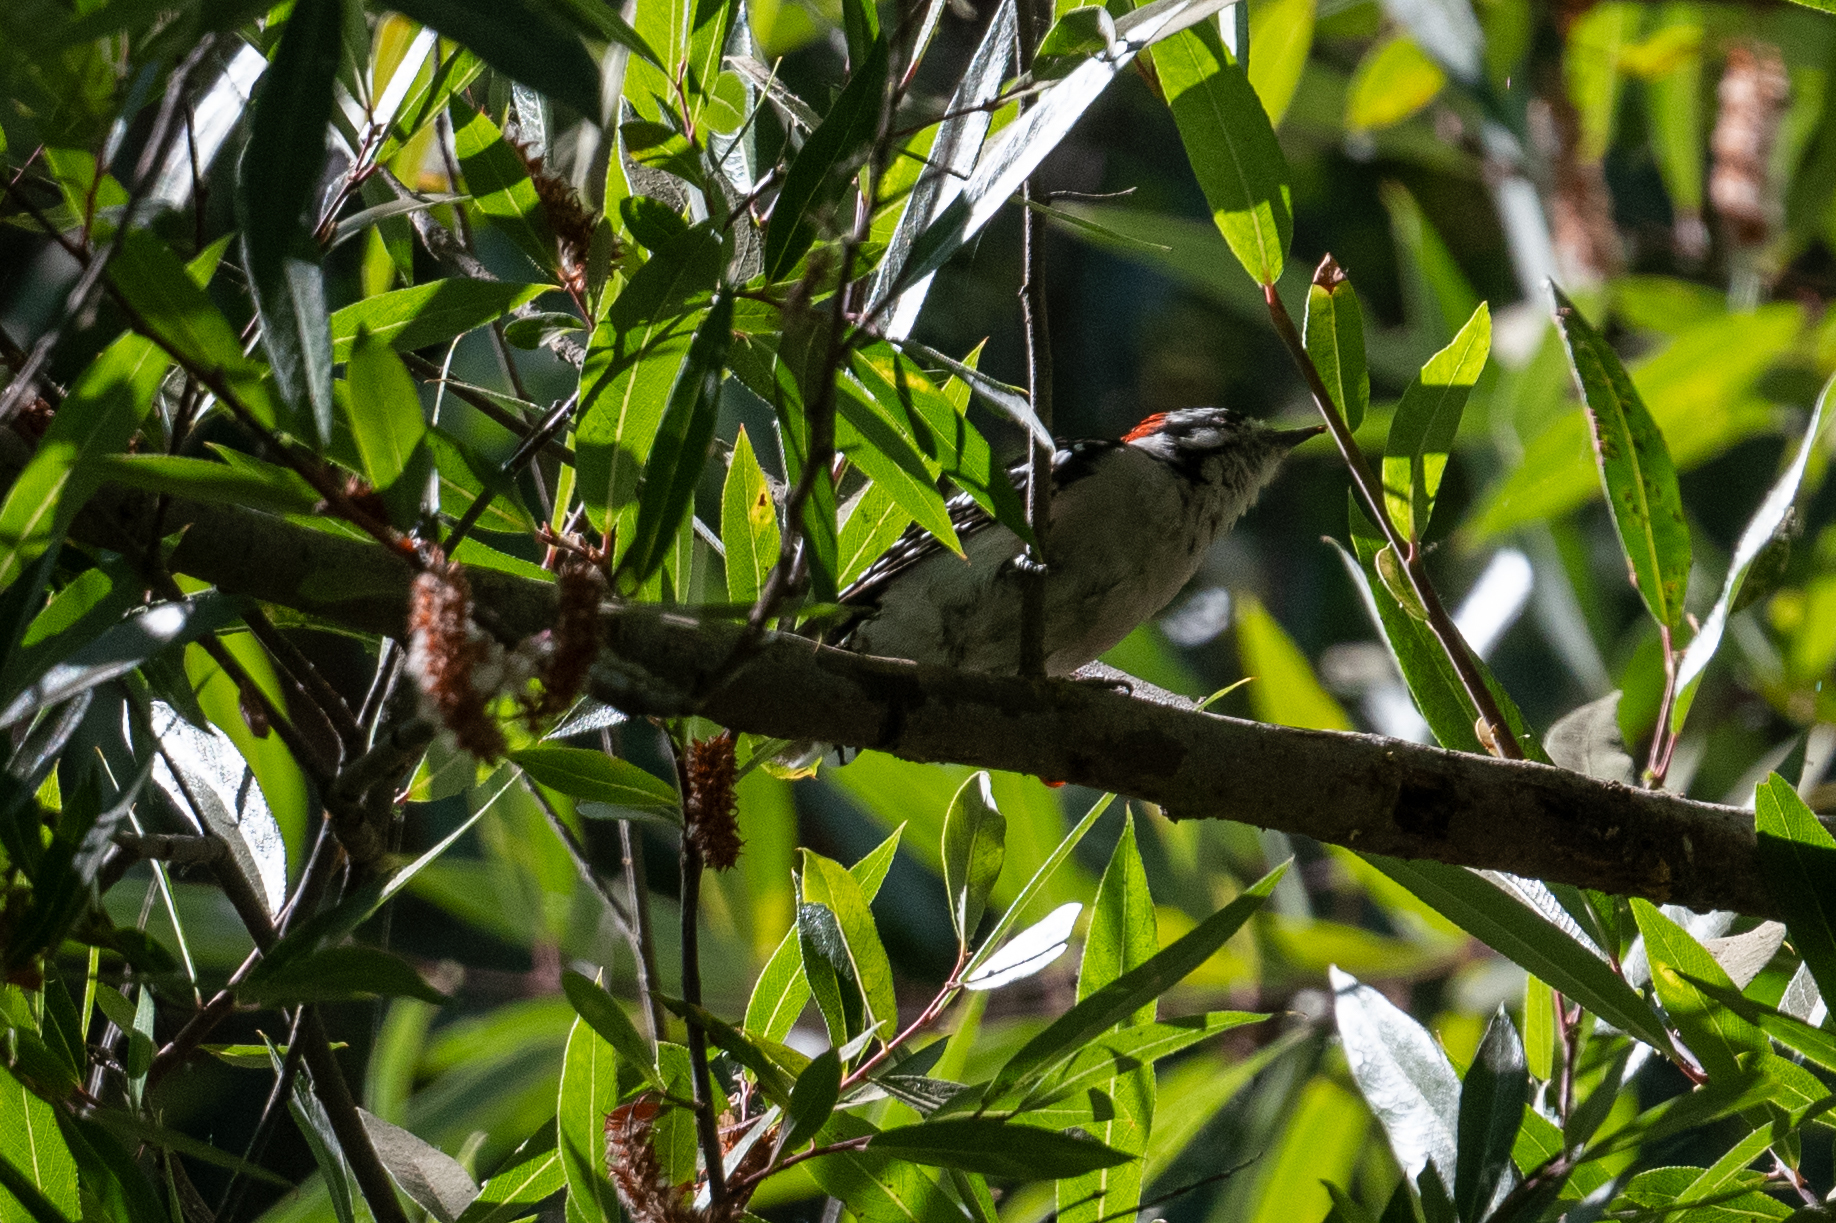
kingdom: Animalia
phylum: Chordata
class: Aves
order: Piciformes
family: Picidae
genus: Dryobates
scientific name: Dryobates pubescens
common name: Downy woodpecker
